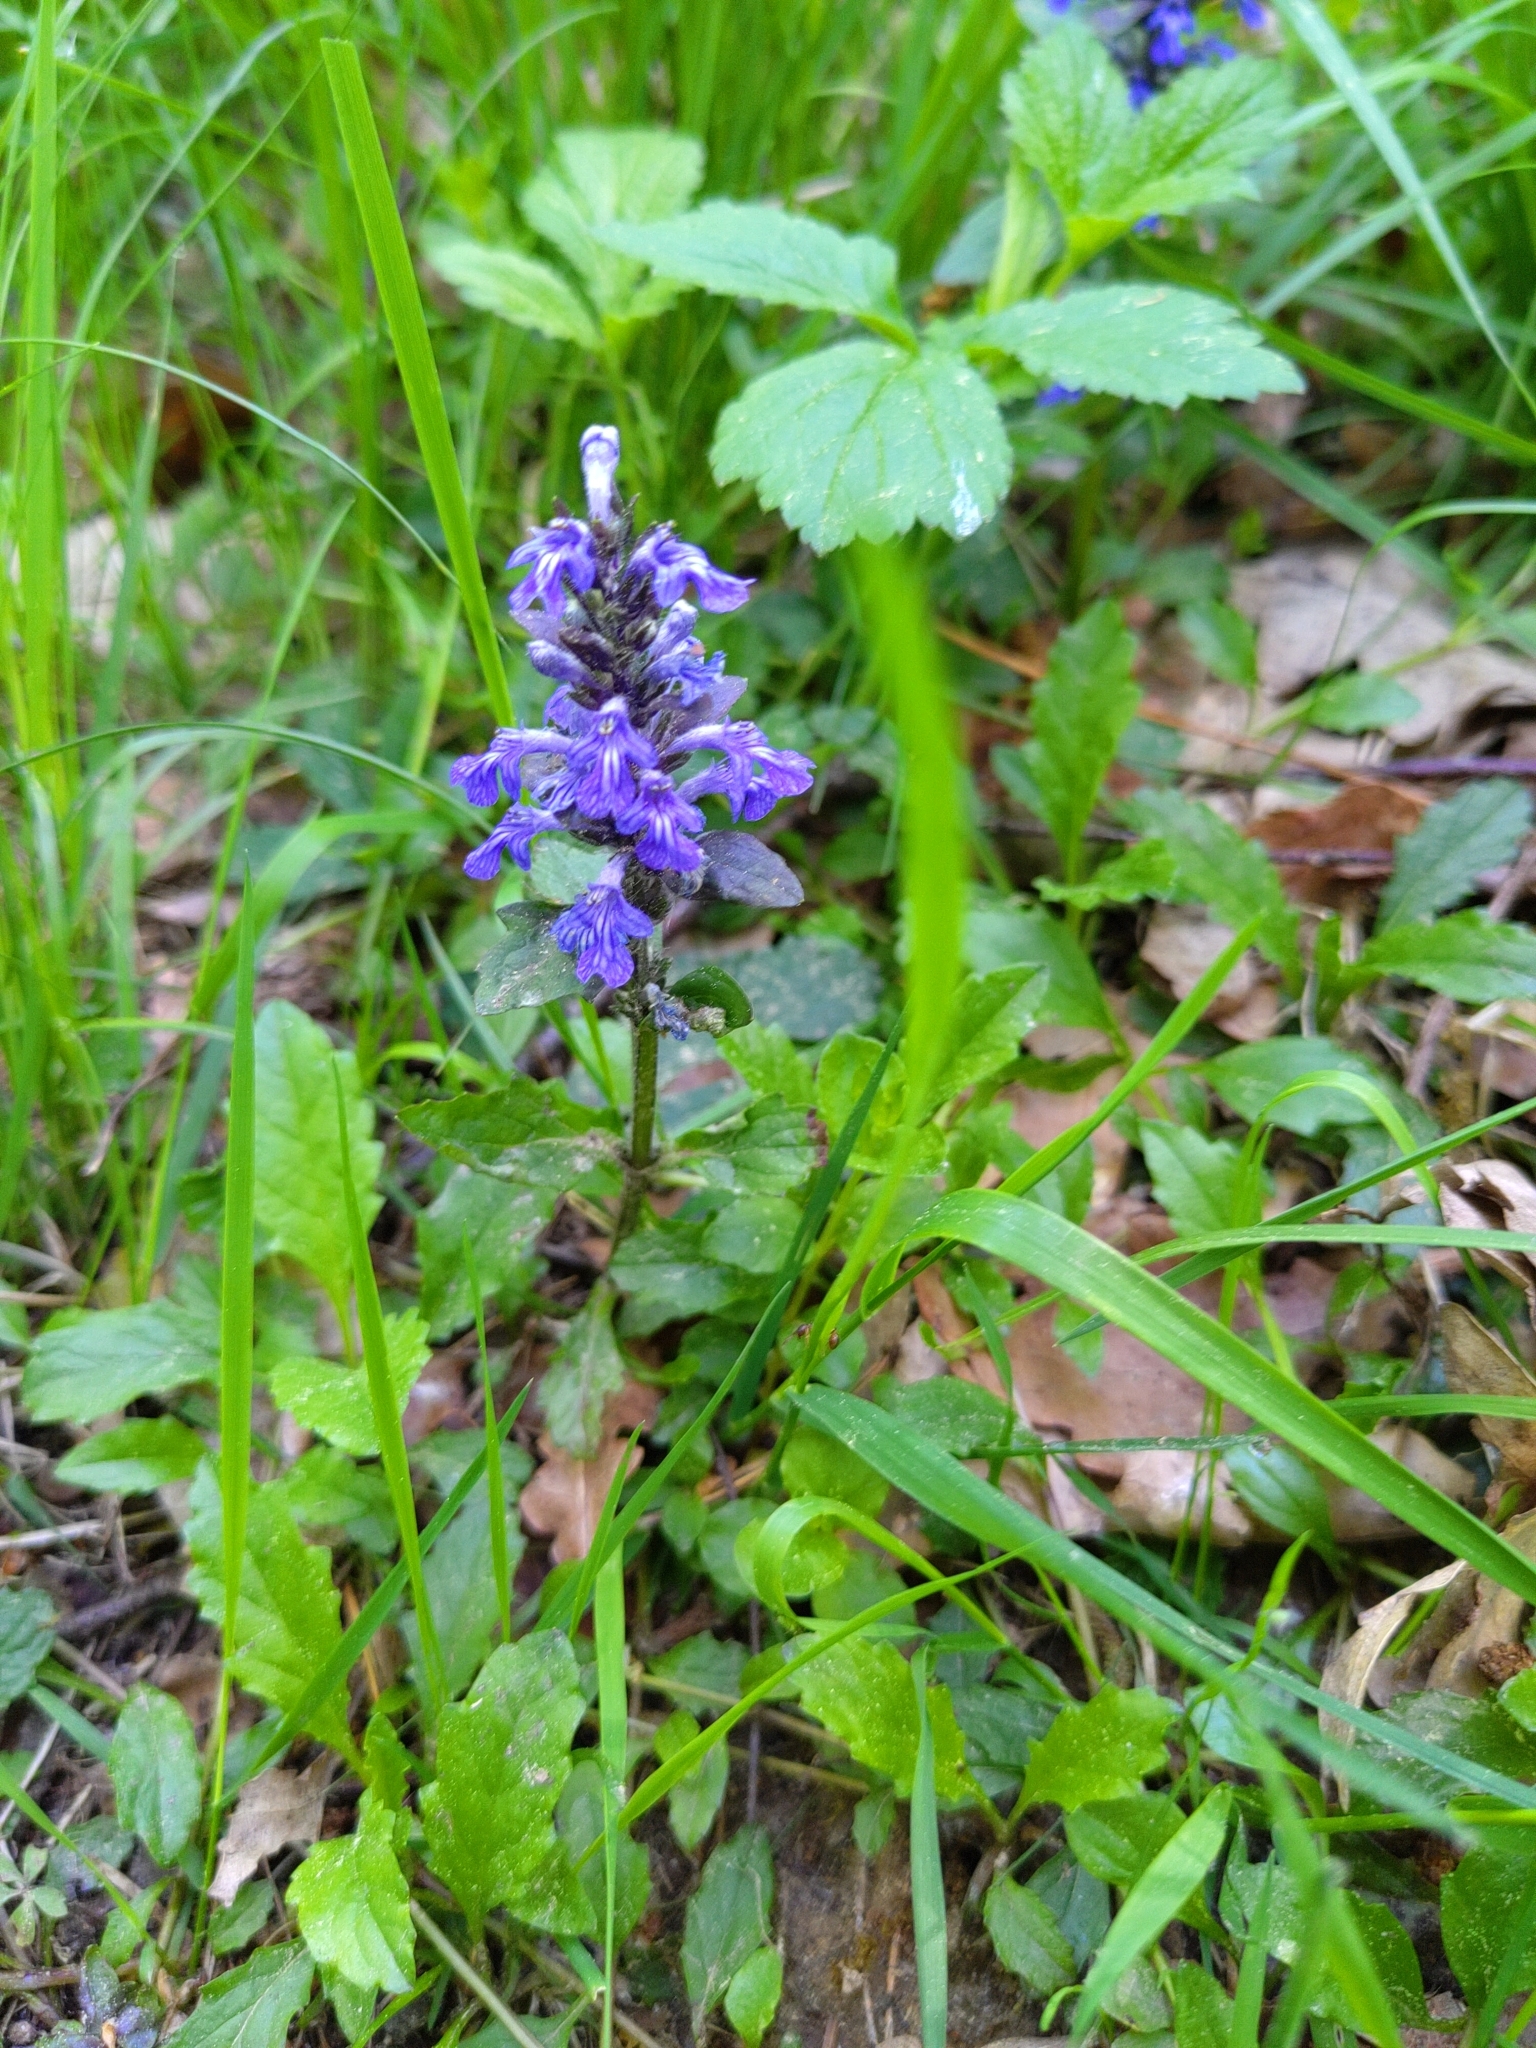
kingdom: Plantae
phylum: Tracheophyta
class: Magnoliopsida
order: Lamiales
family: Lamiaceae
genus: Ajuga
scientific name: Ajuga reptans
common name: Bugle
